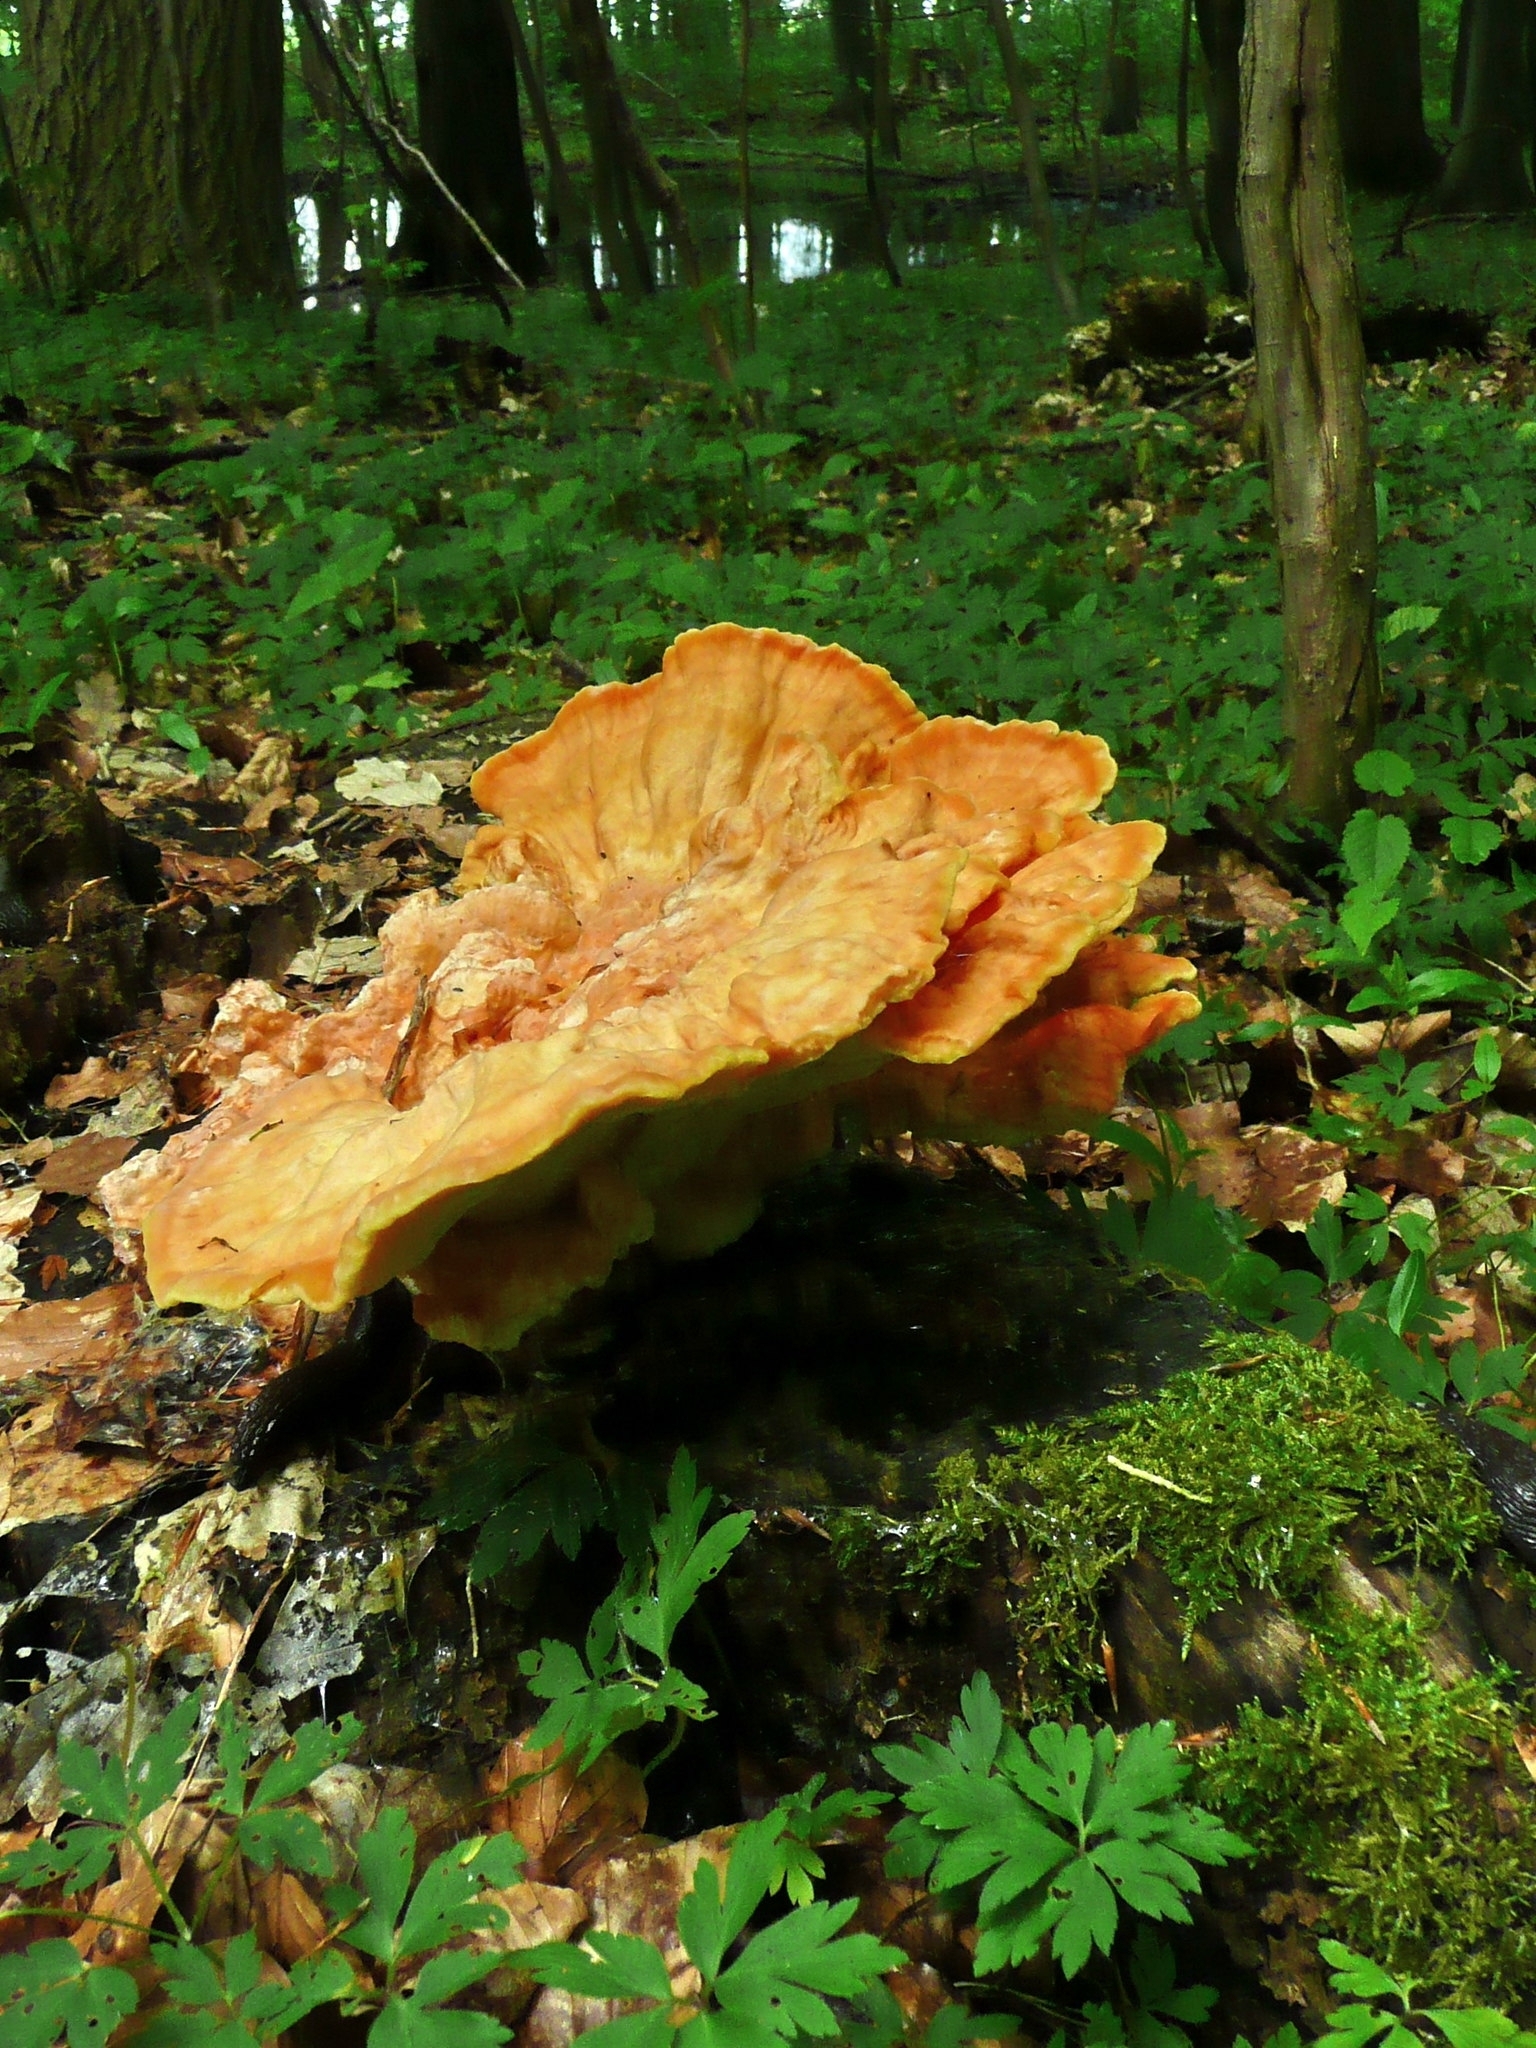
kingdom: Fungi
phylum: Basidiomycota
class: Agaricomycetes
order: Polyporales
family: Laetiporaceae
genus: Laetiporus
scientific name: Laetiporus sulphureus
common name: Chicken of the woods
